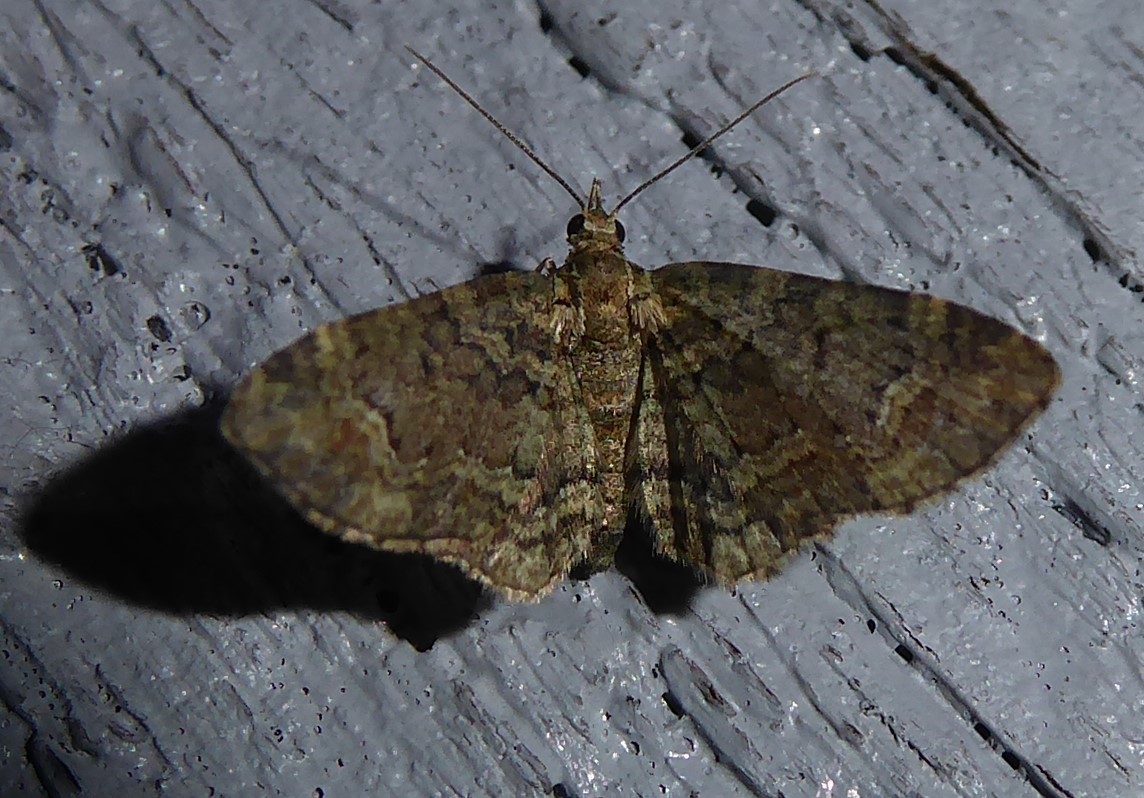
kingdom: Animalia
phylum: Arthropoda
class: Insecta
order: Lepidoptera
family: Geometridae
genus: Pasiphilodes
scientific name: Pasiphilodes testulata
